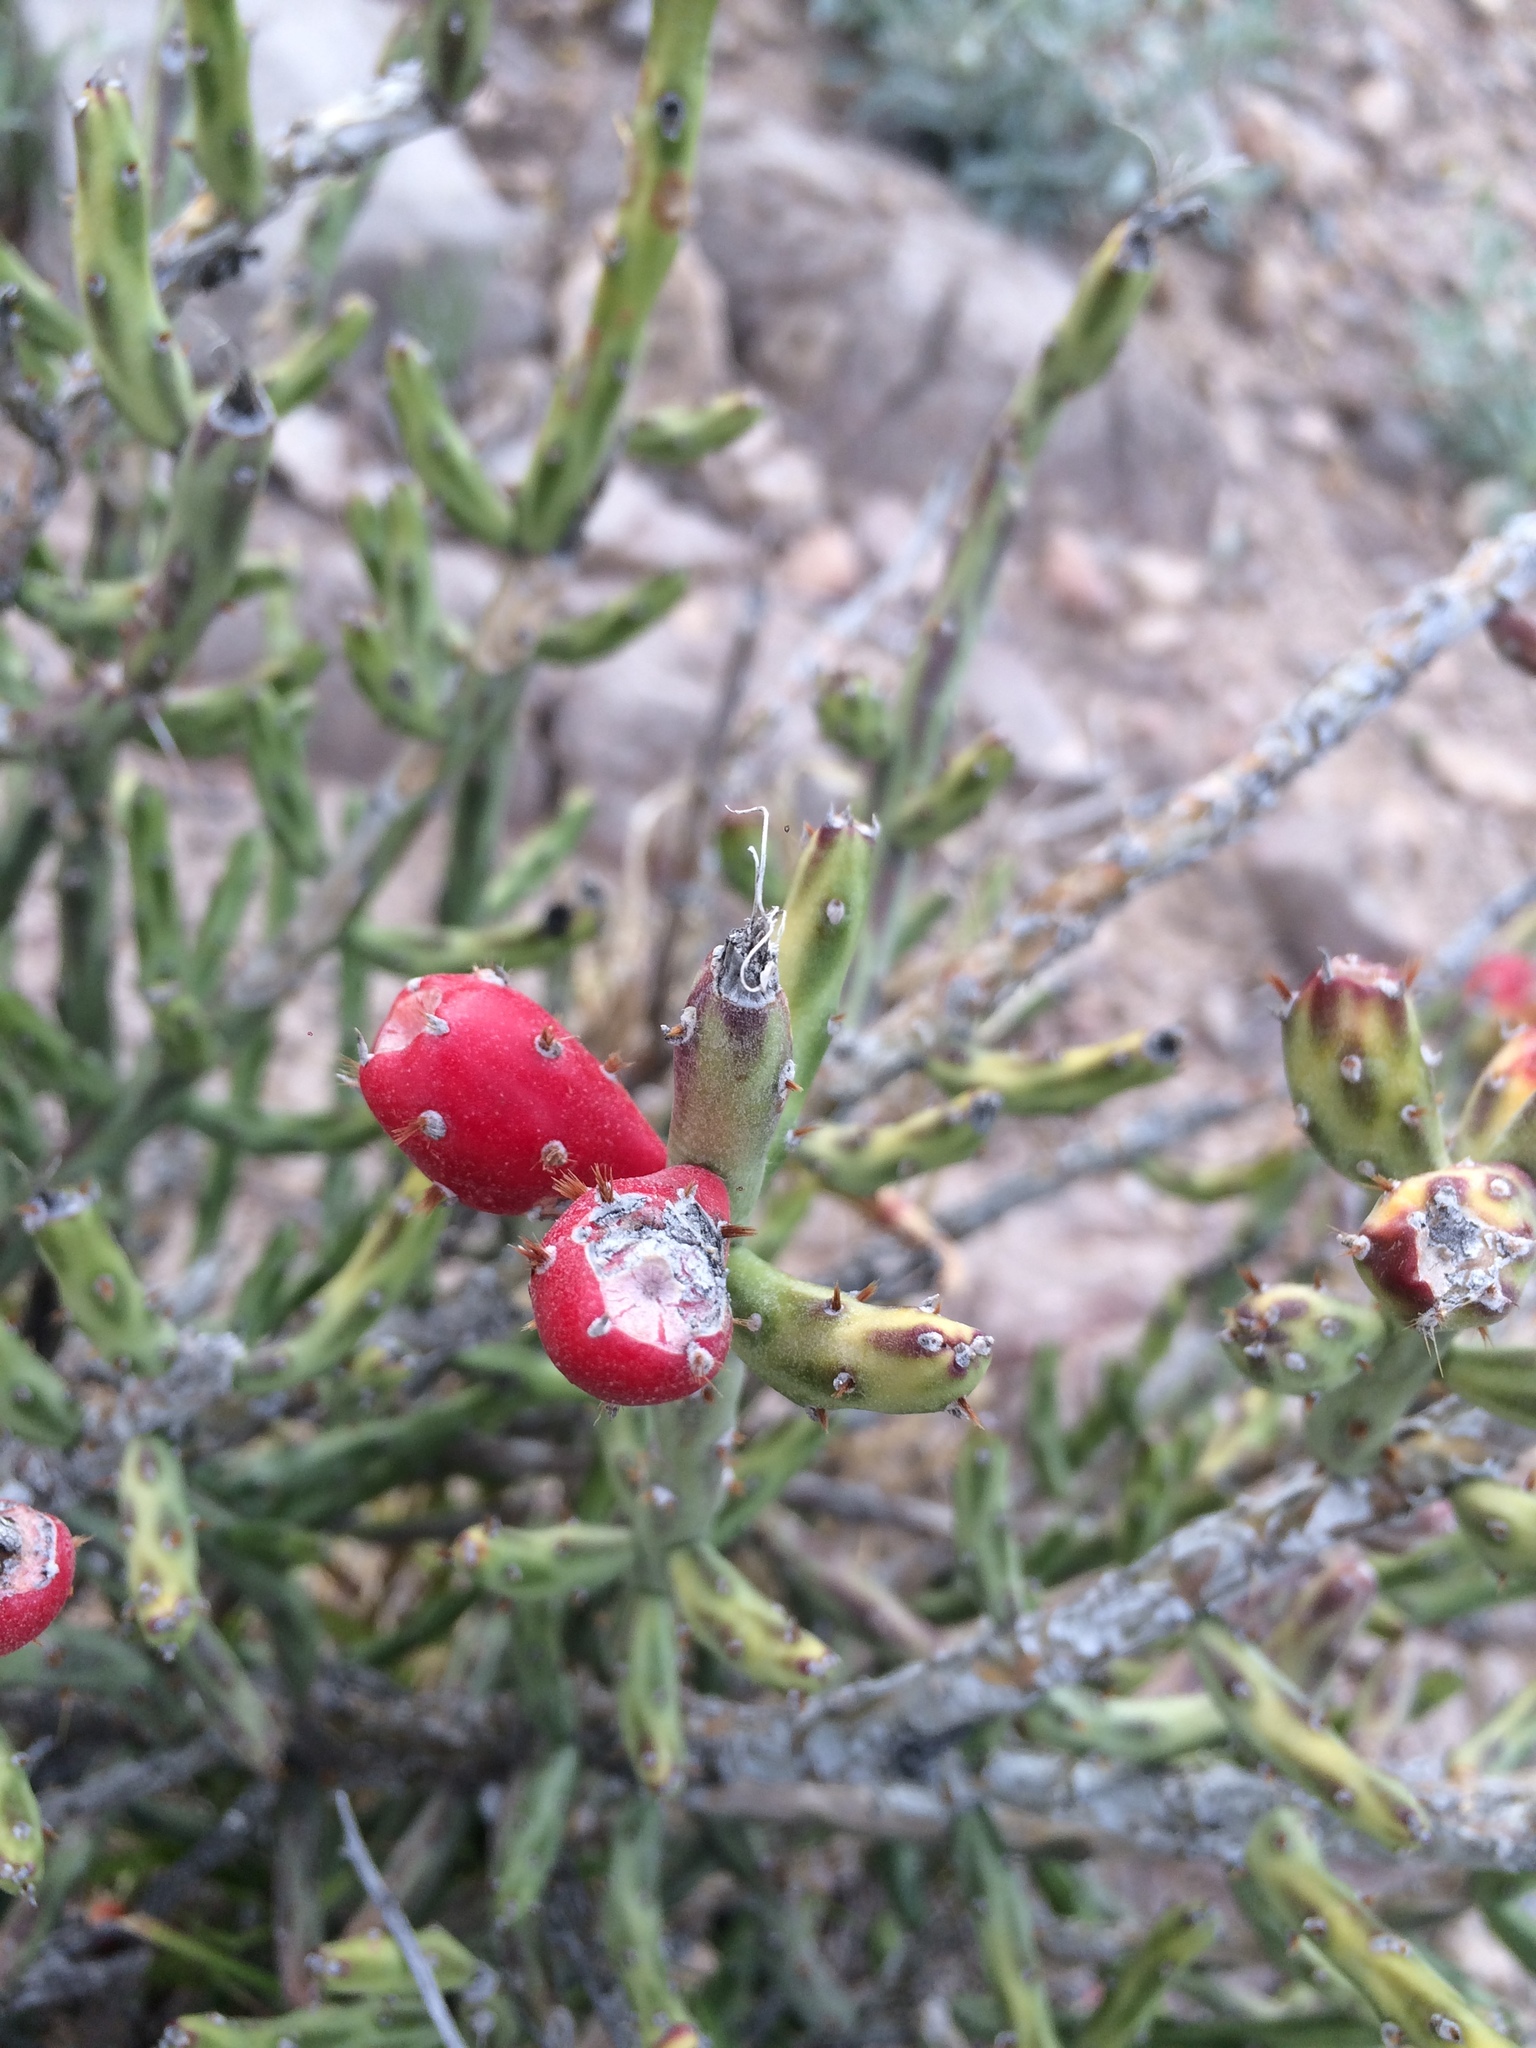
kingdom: Plantae
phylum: Tracheophyta
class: Magnoliopsida
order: Caryophyllales
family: Cactaceae
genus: Cylindropuntia
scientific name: Cylindropuntia leptocaulis
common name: Christmas cactus
